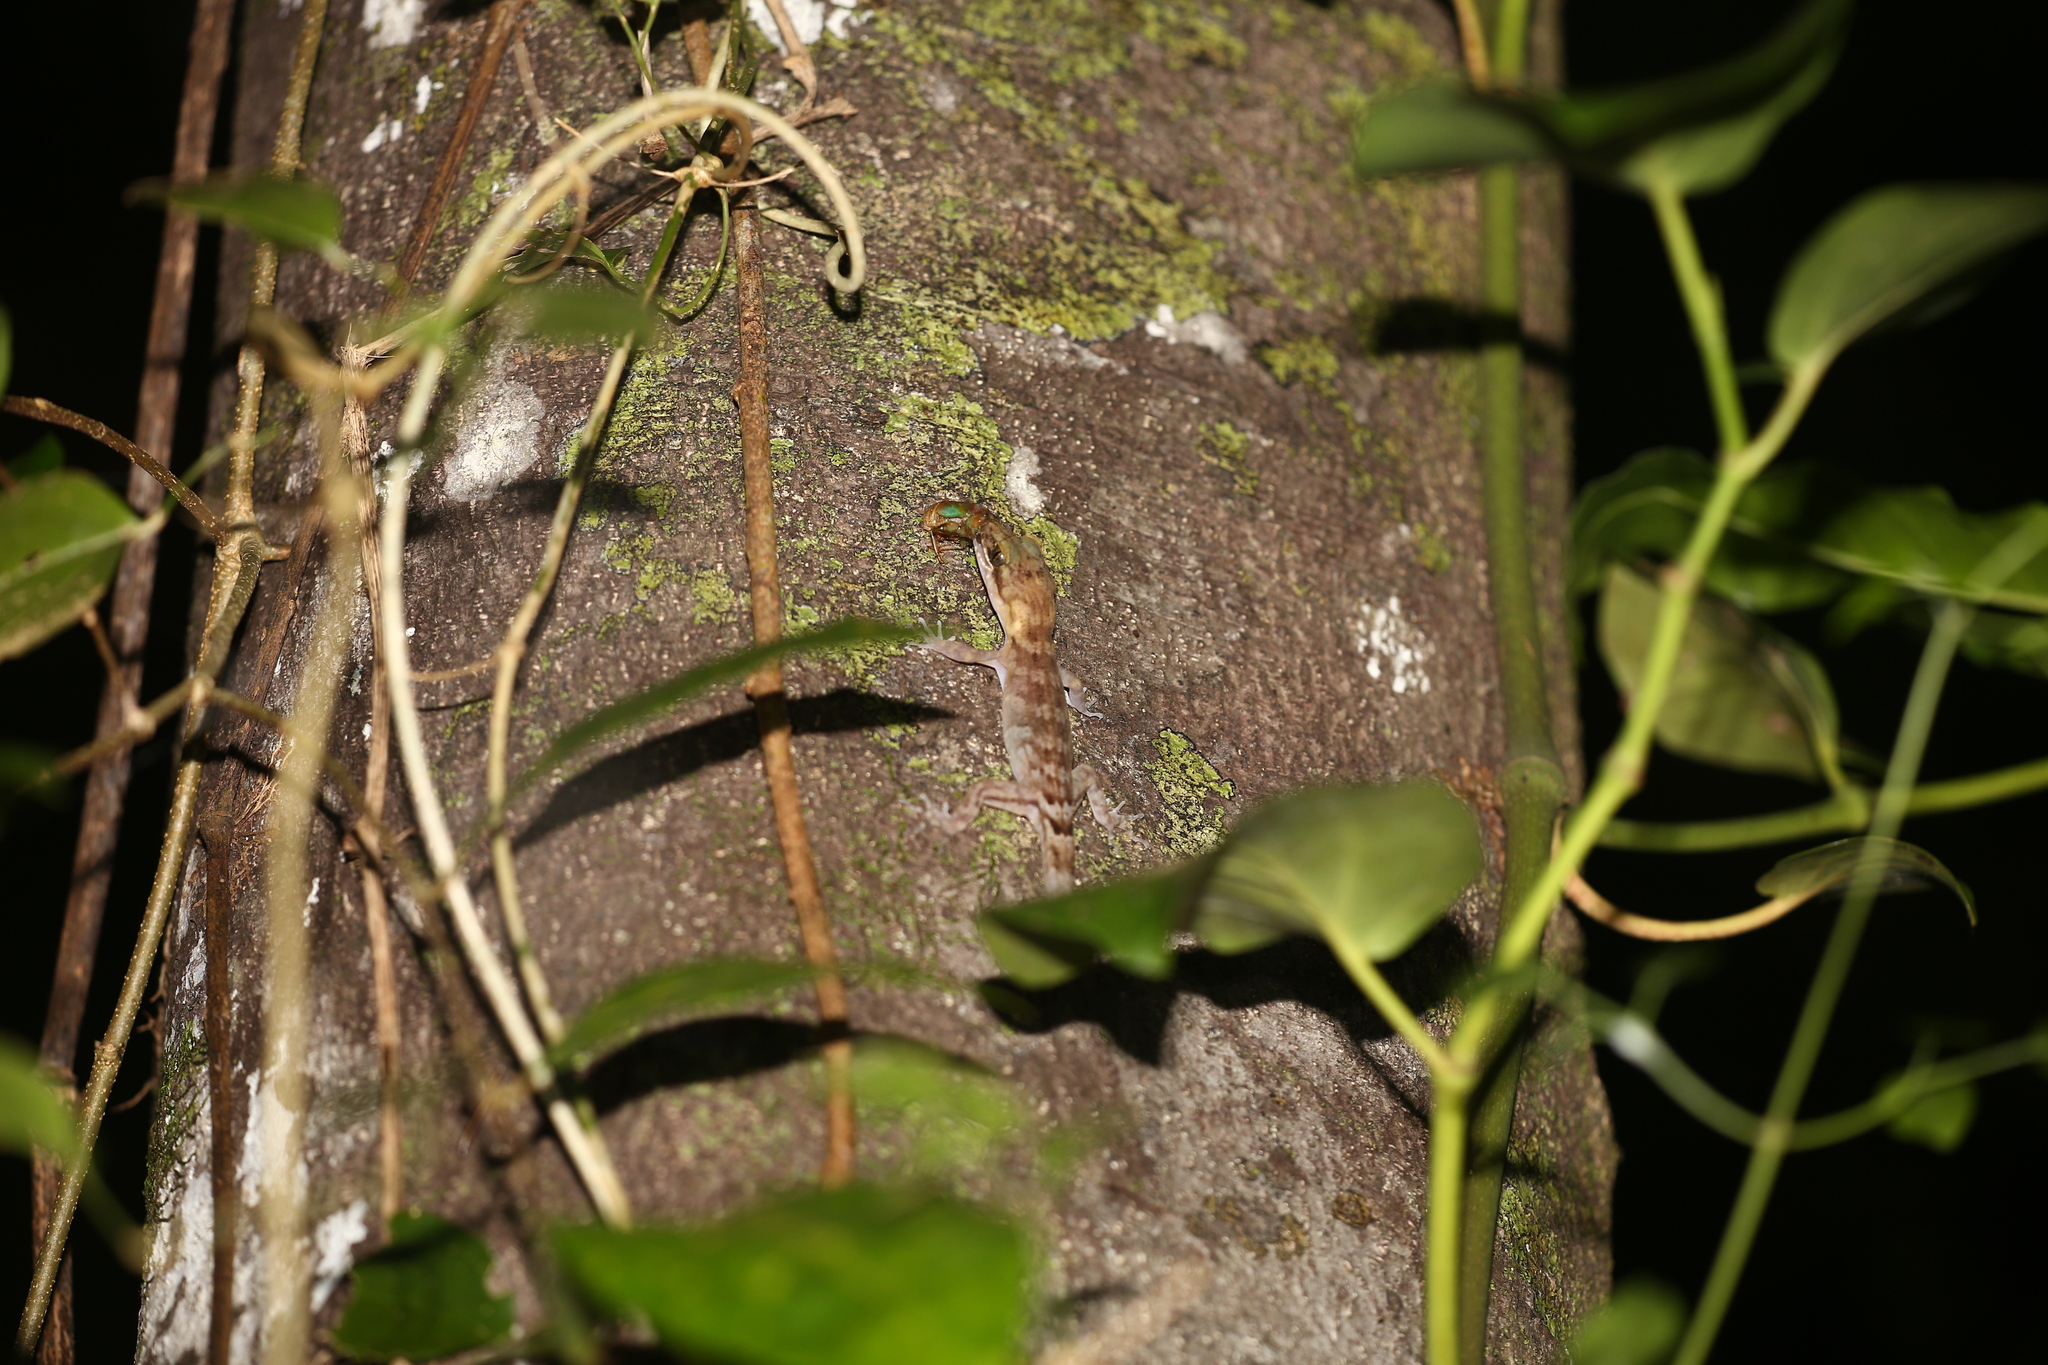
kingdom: Animalia
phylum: Chordata
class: Squamata
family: Gekkonidae
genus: Nactus
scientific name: Nactus pelagicus
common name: Pelagic gecko
